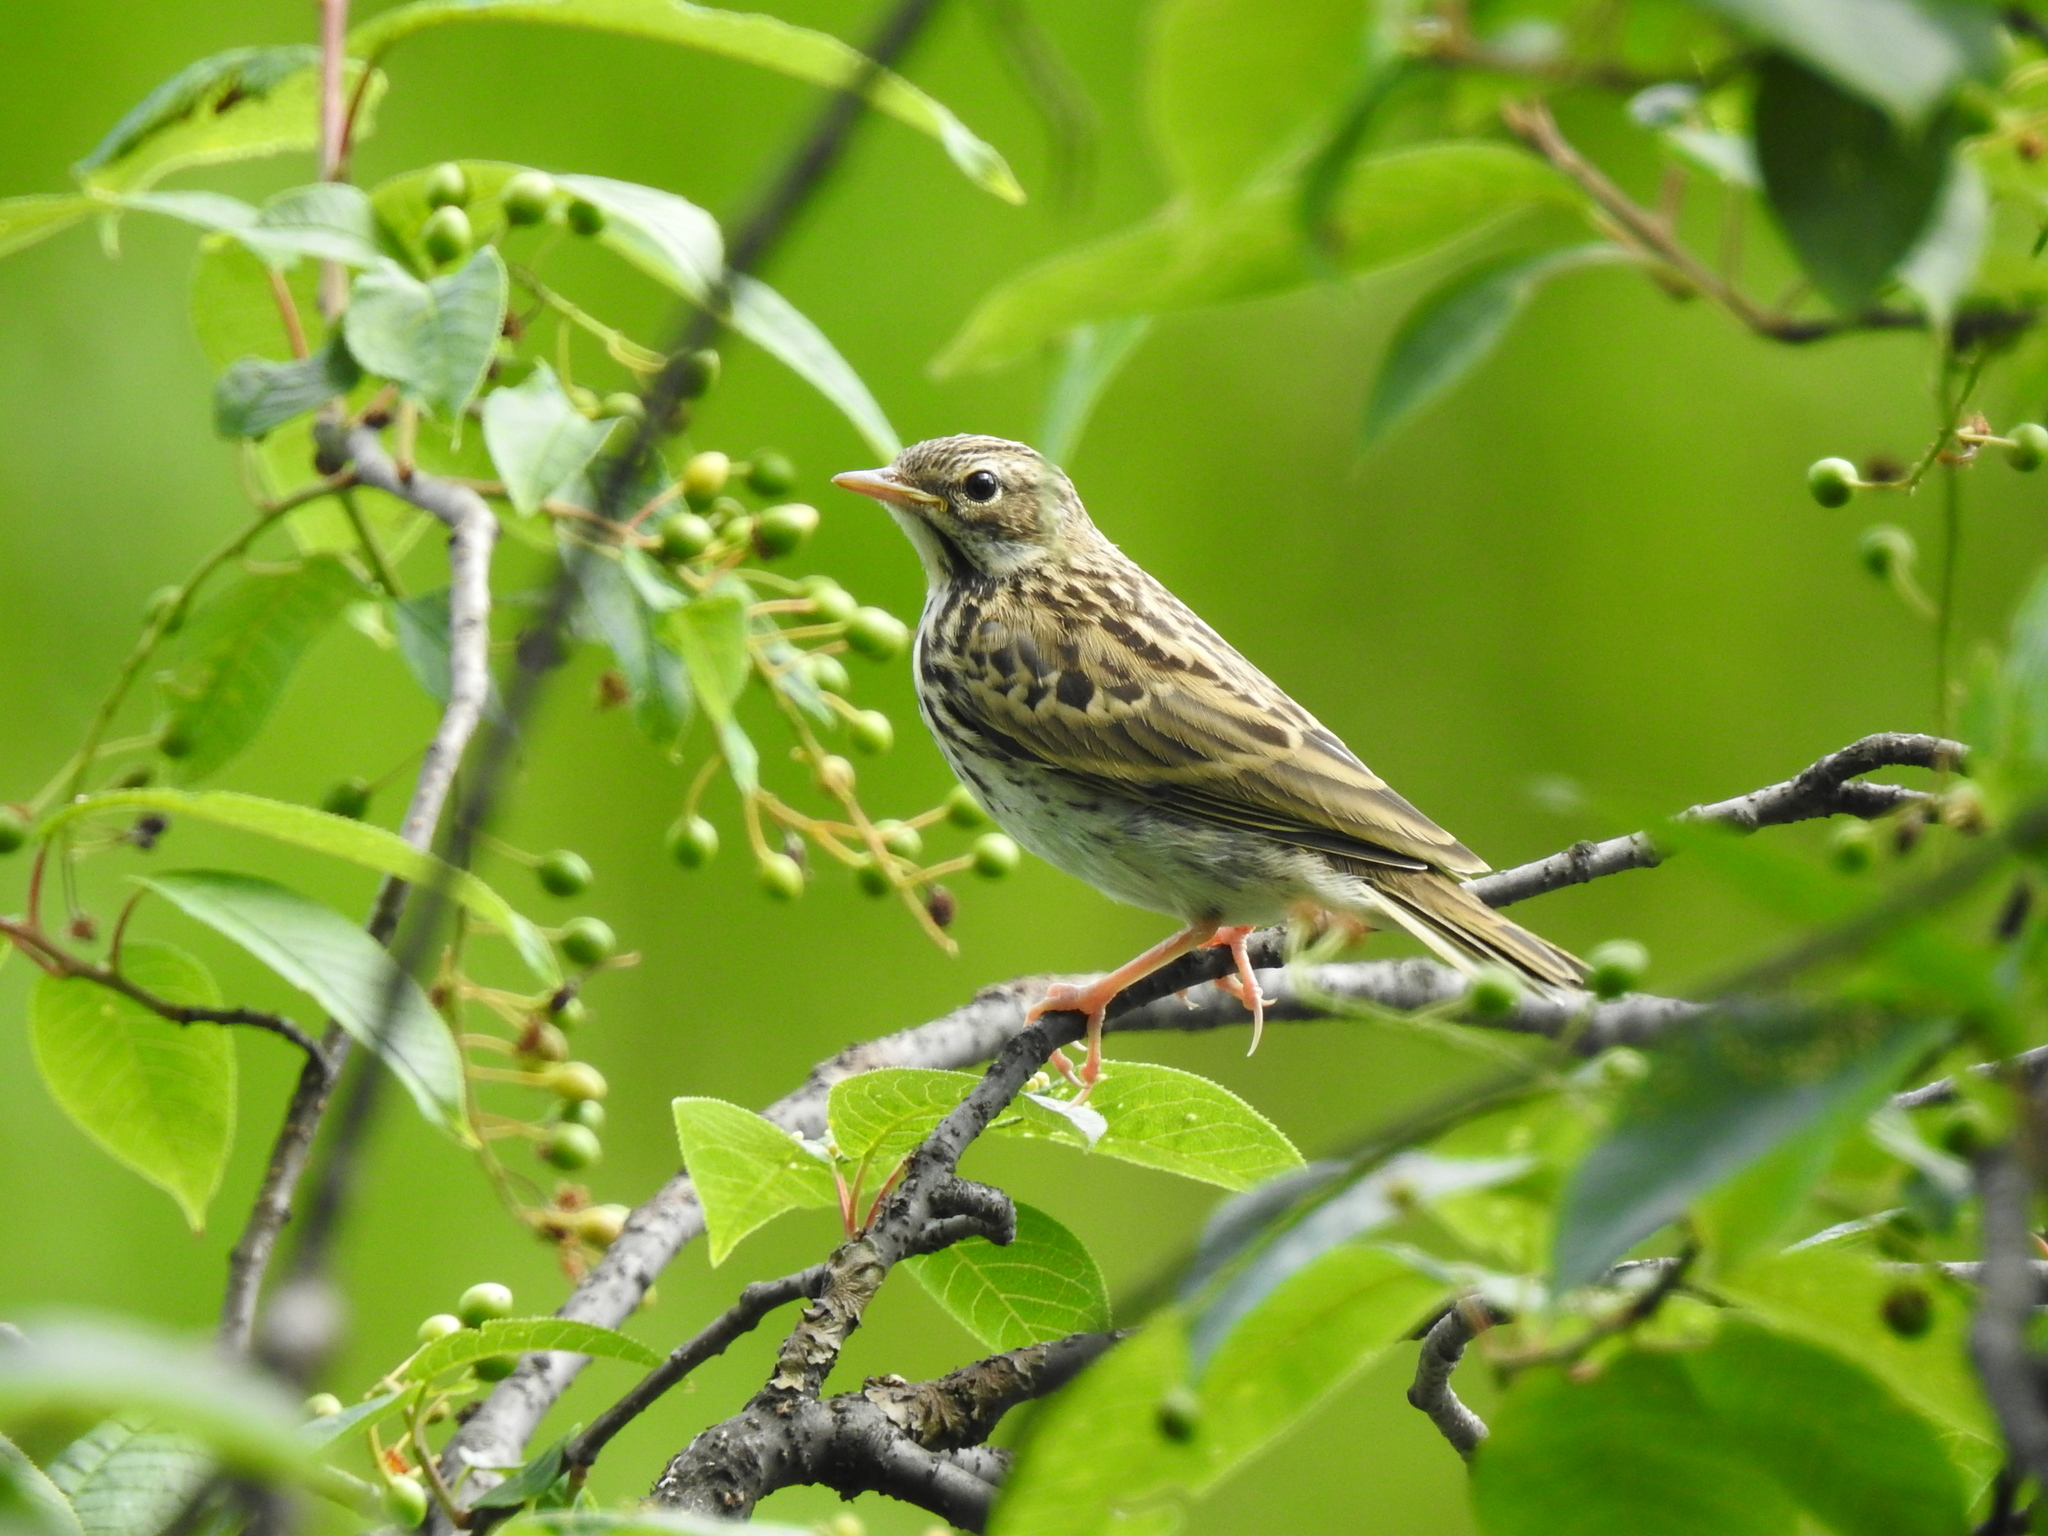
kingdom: Animalia
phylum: Chordata
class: Aves
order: Passeriformes
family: Motacillidae
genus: Anthus
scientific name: Anthus trivialis
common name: Tree pipit
